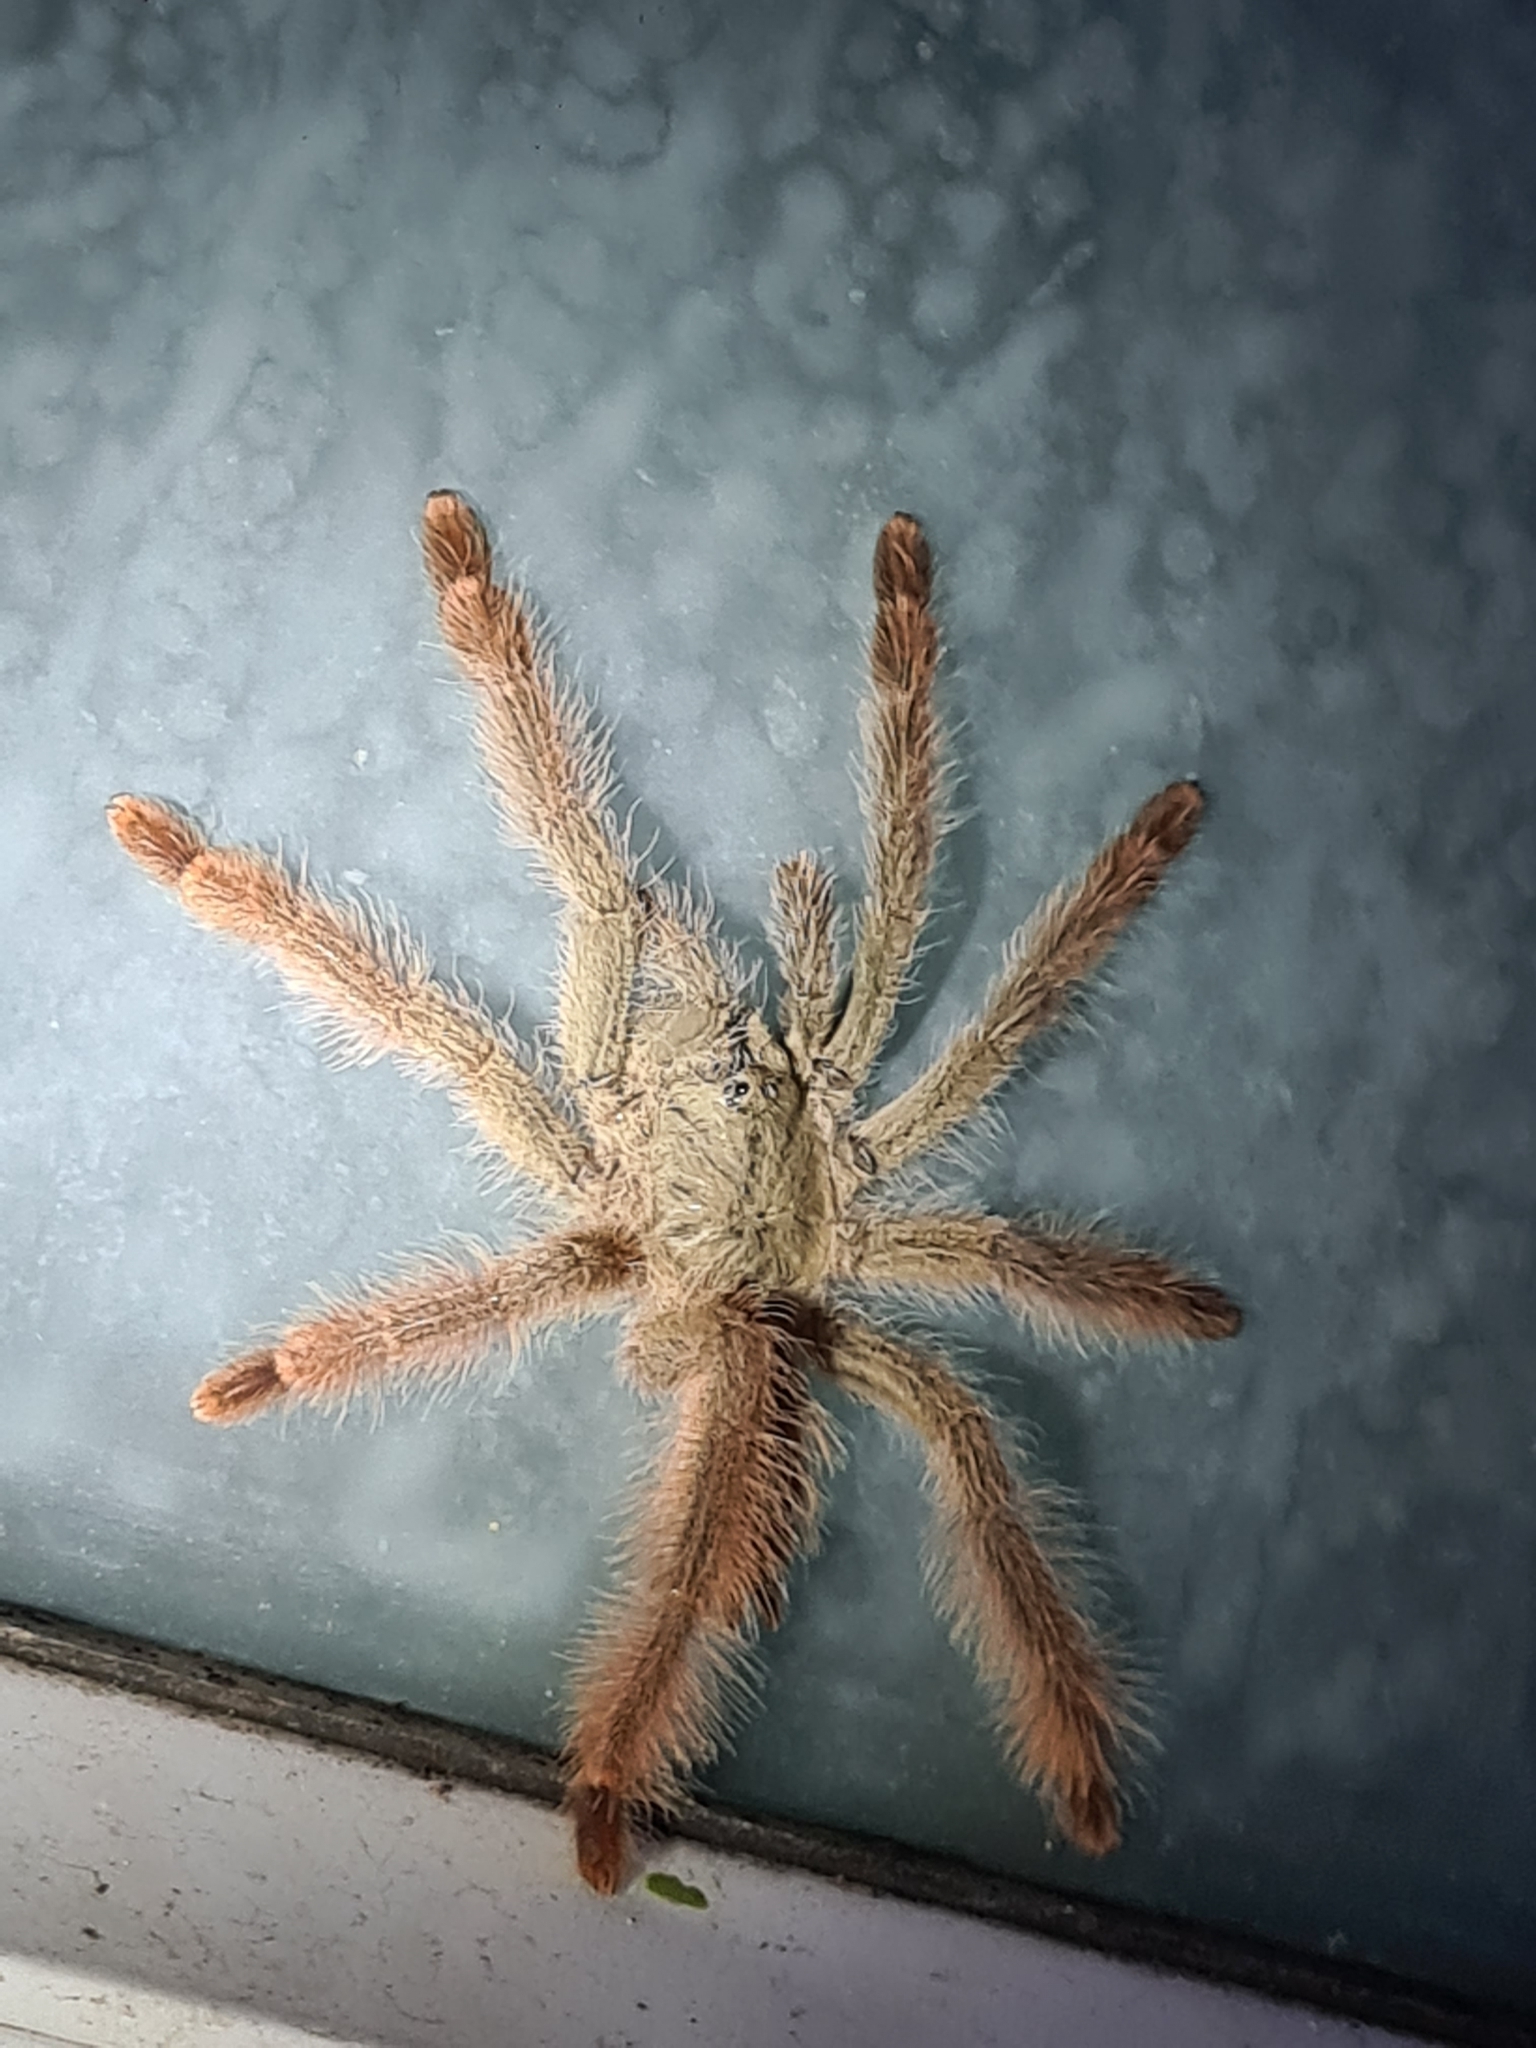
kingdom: Animalia
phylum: Arthropoda
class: Arachnida
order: Araneae
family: Theraphosidae
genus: Amazonius
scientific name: Amazonius germani
